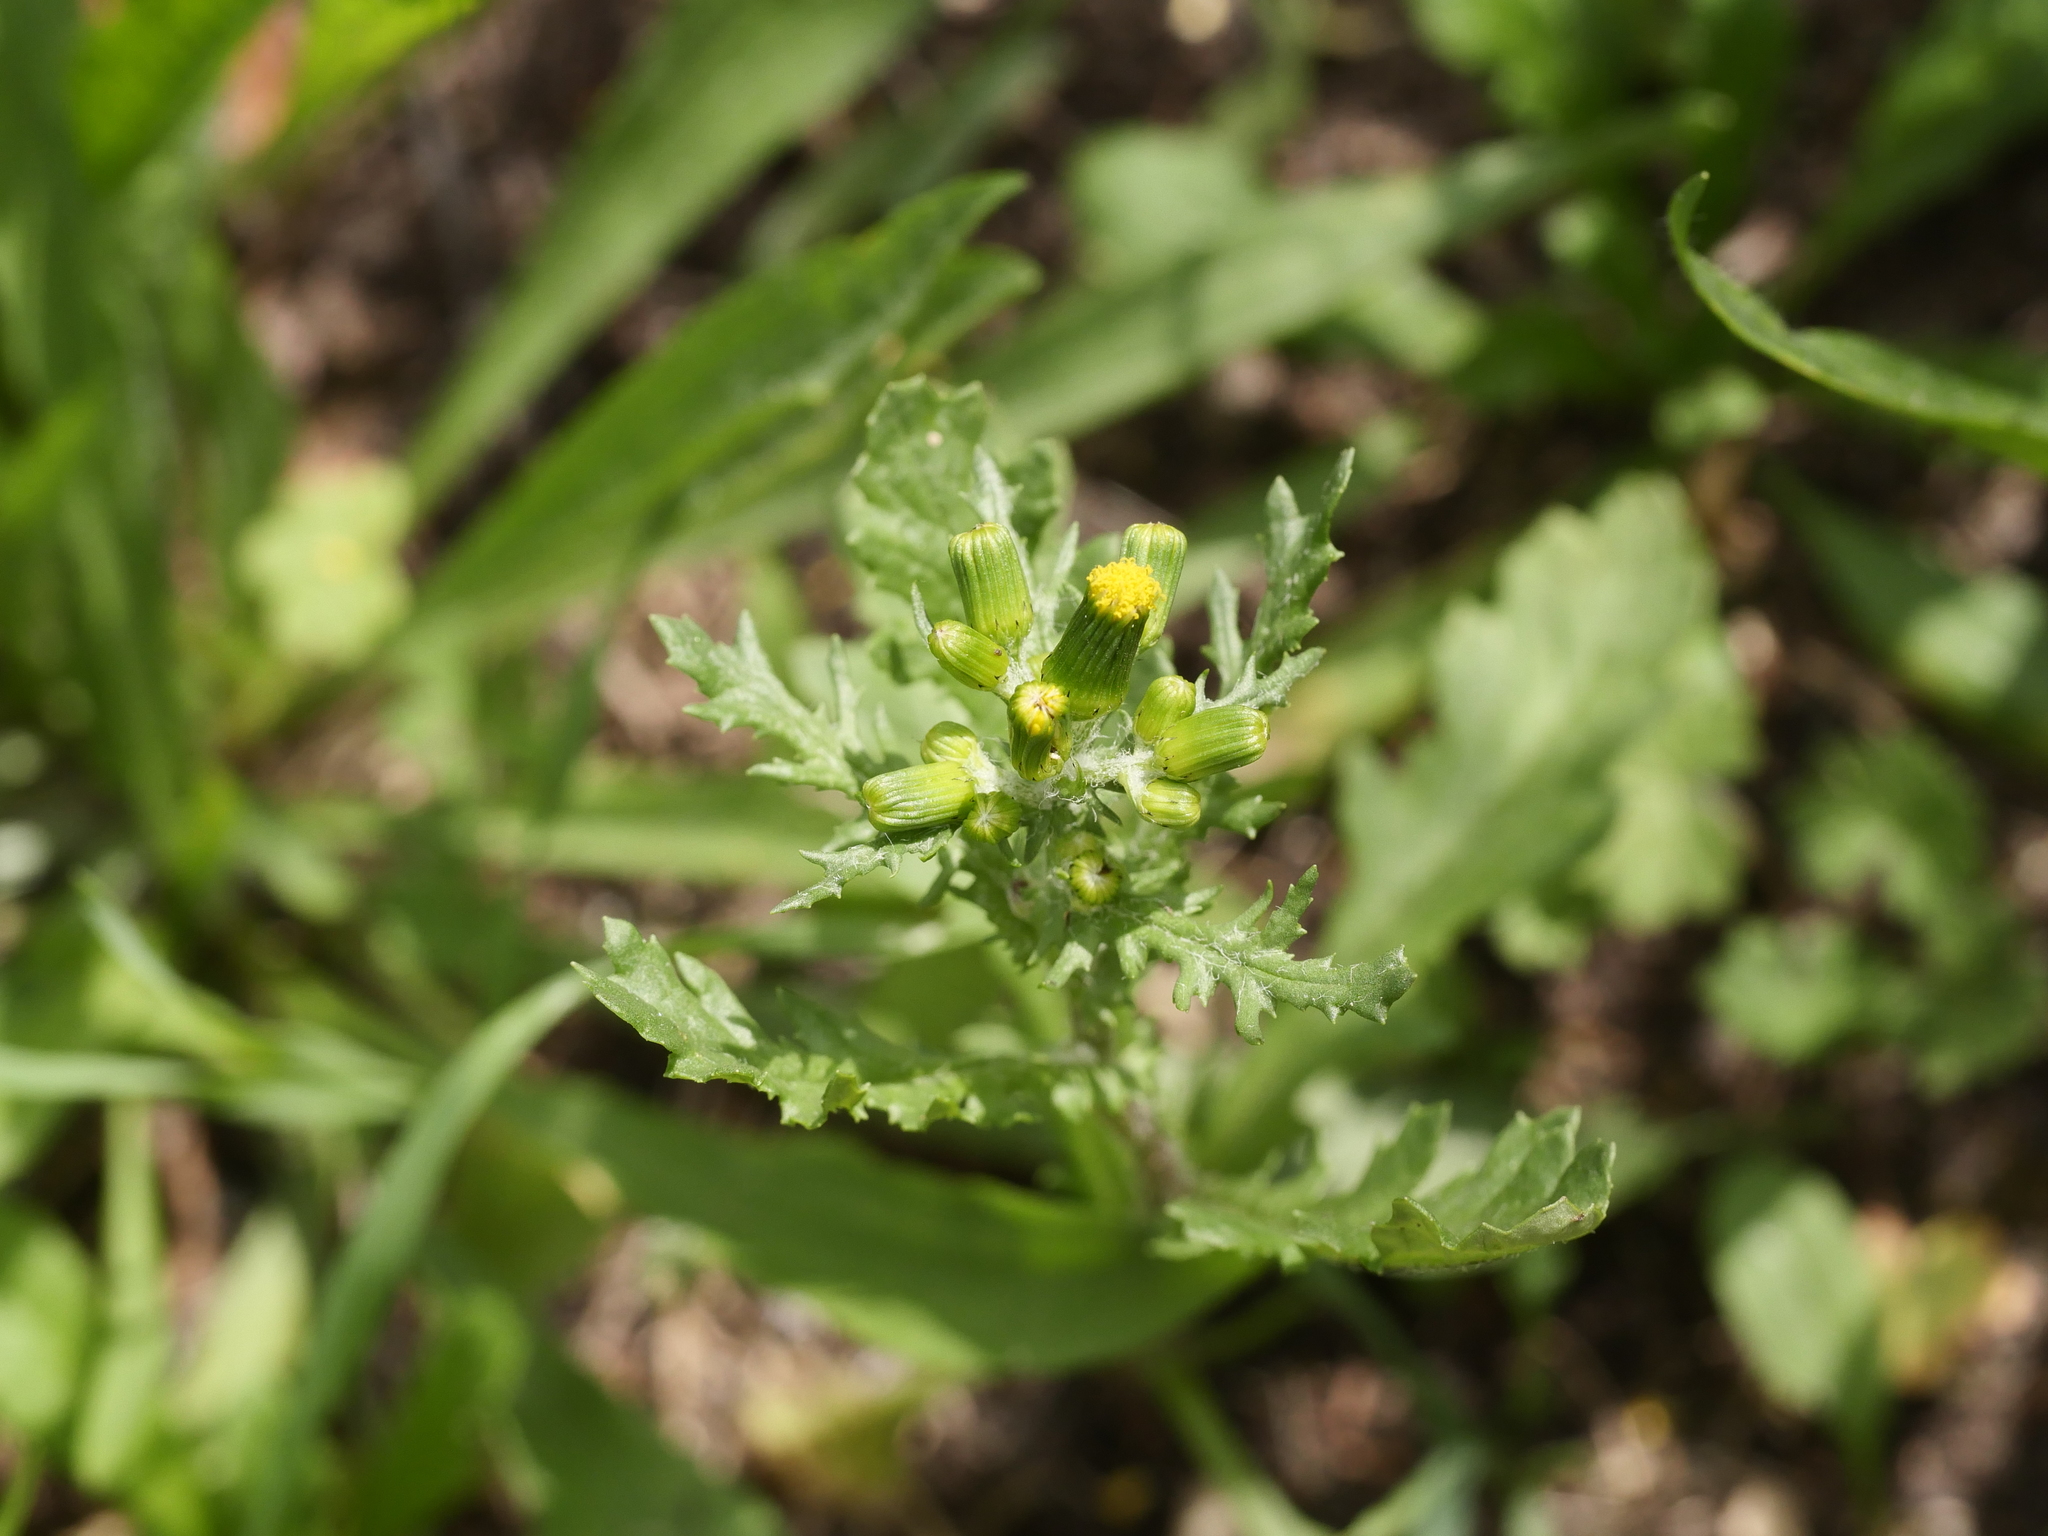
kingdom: Plantae
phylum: Tracheophyta
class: Magnoliopsida
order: Asterales
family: Asteraceae
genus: Senecio
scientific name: Senecio vulgaris
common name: Old-man-in-the-spring
